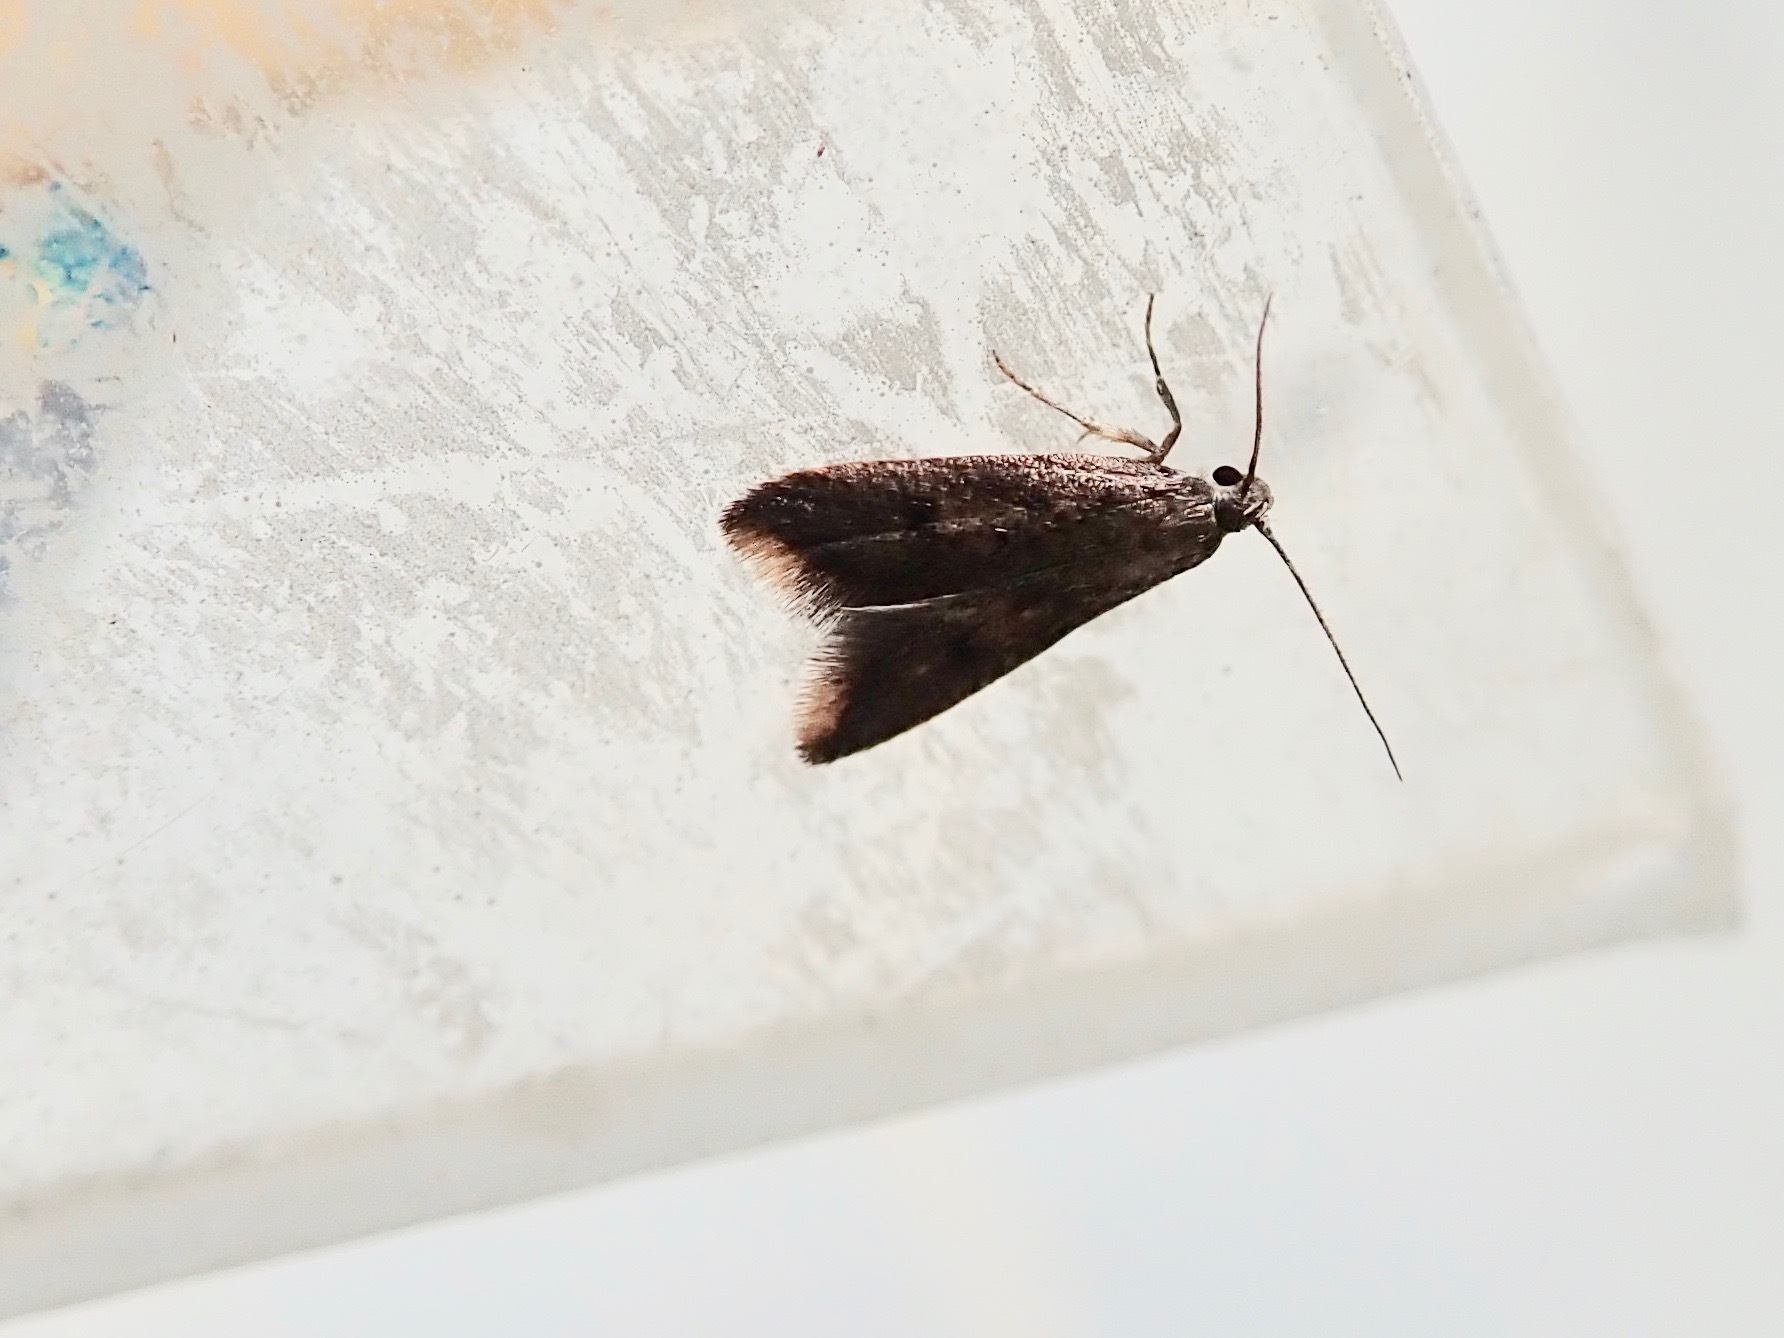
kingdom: Animalia
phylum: Arthropoda
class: Insecta
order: Lepidoptera
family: Oecophoridae
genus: Tachystola
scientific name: Tachystola acroxantha
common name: Ruddy streak
